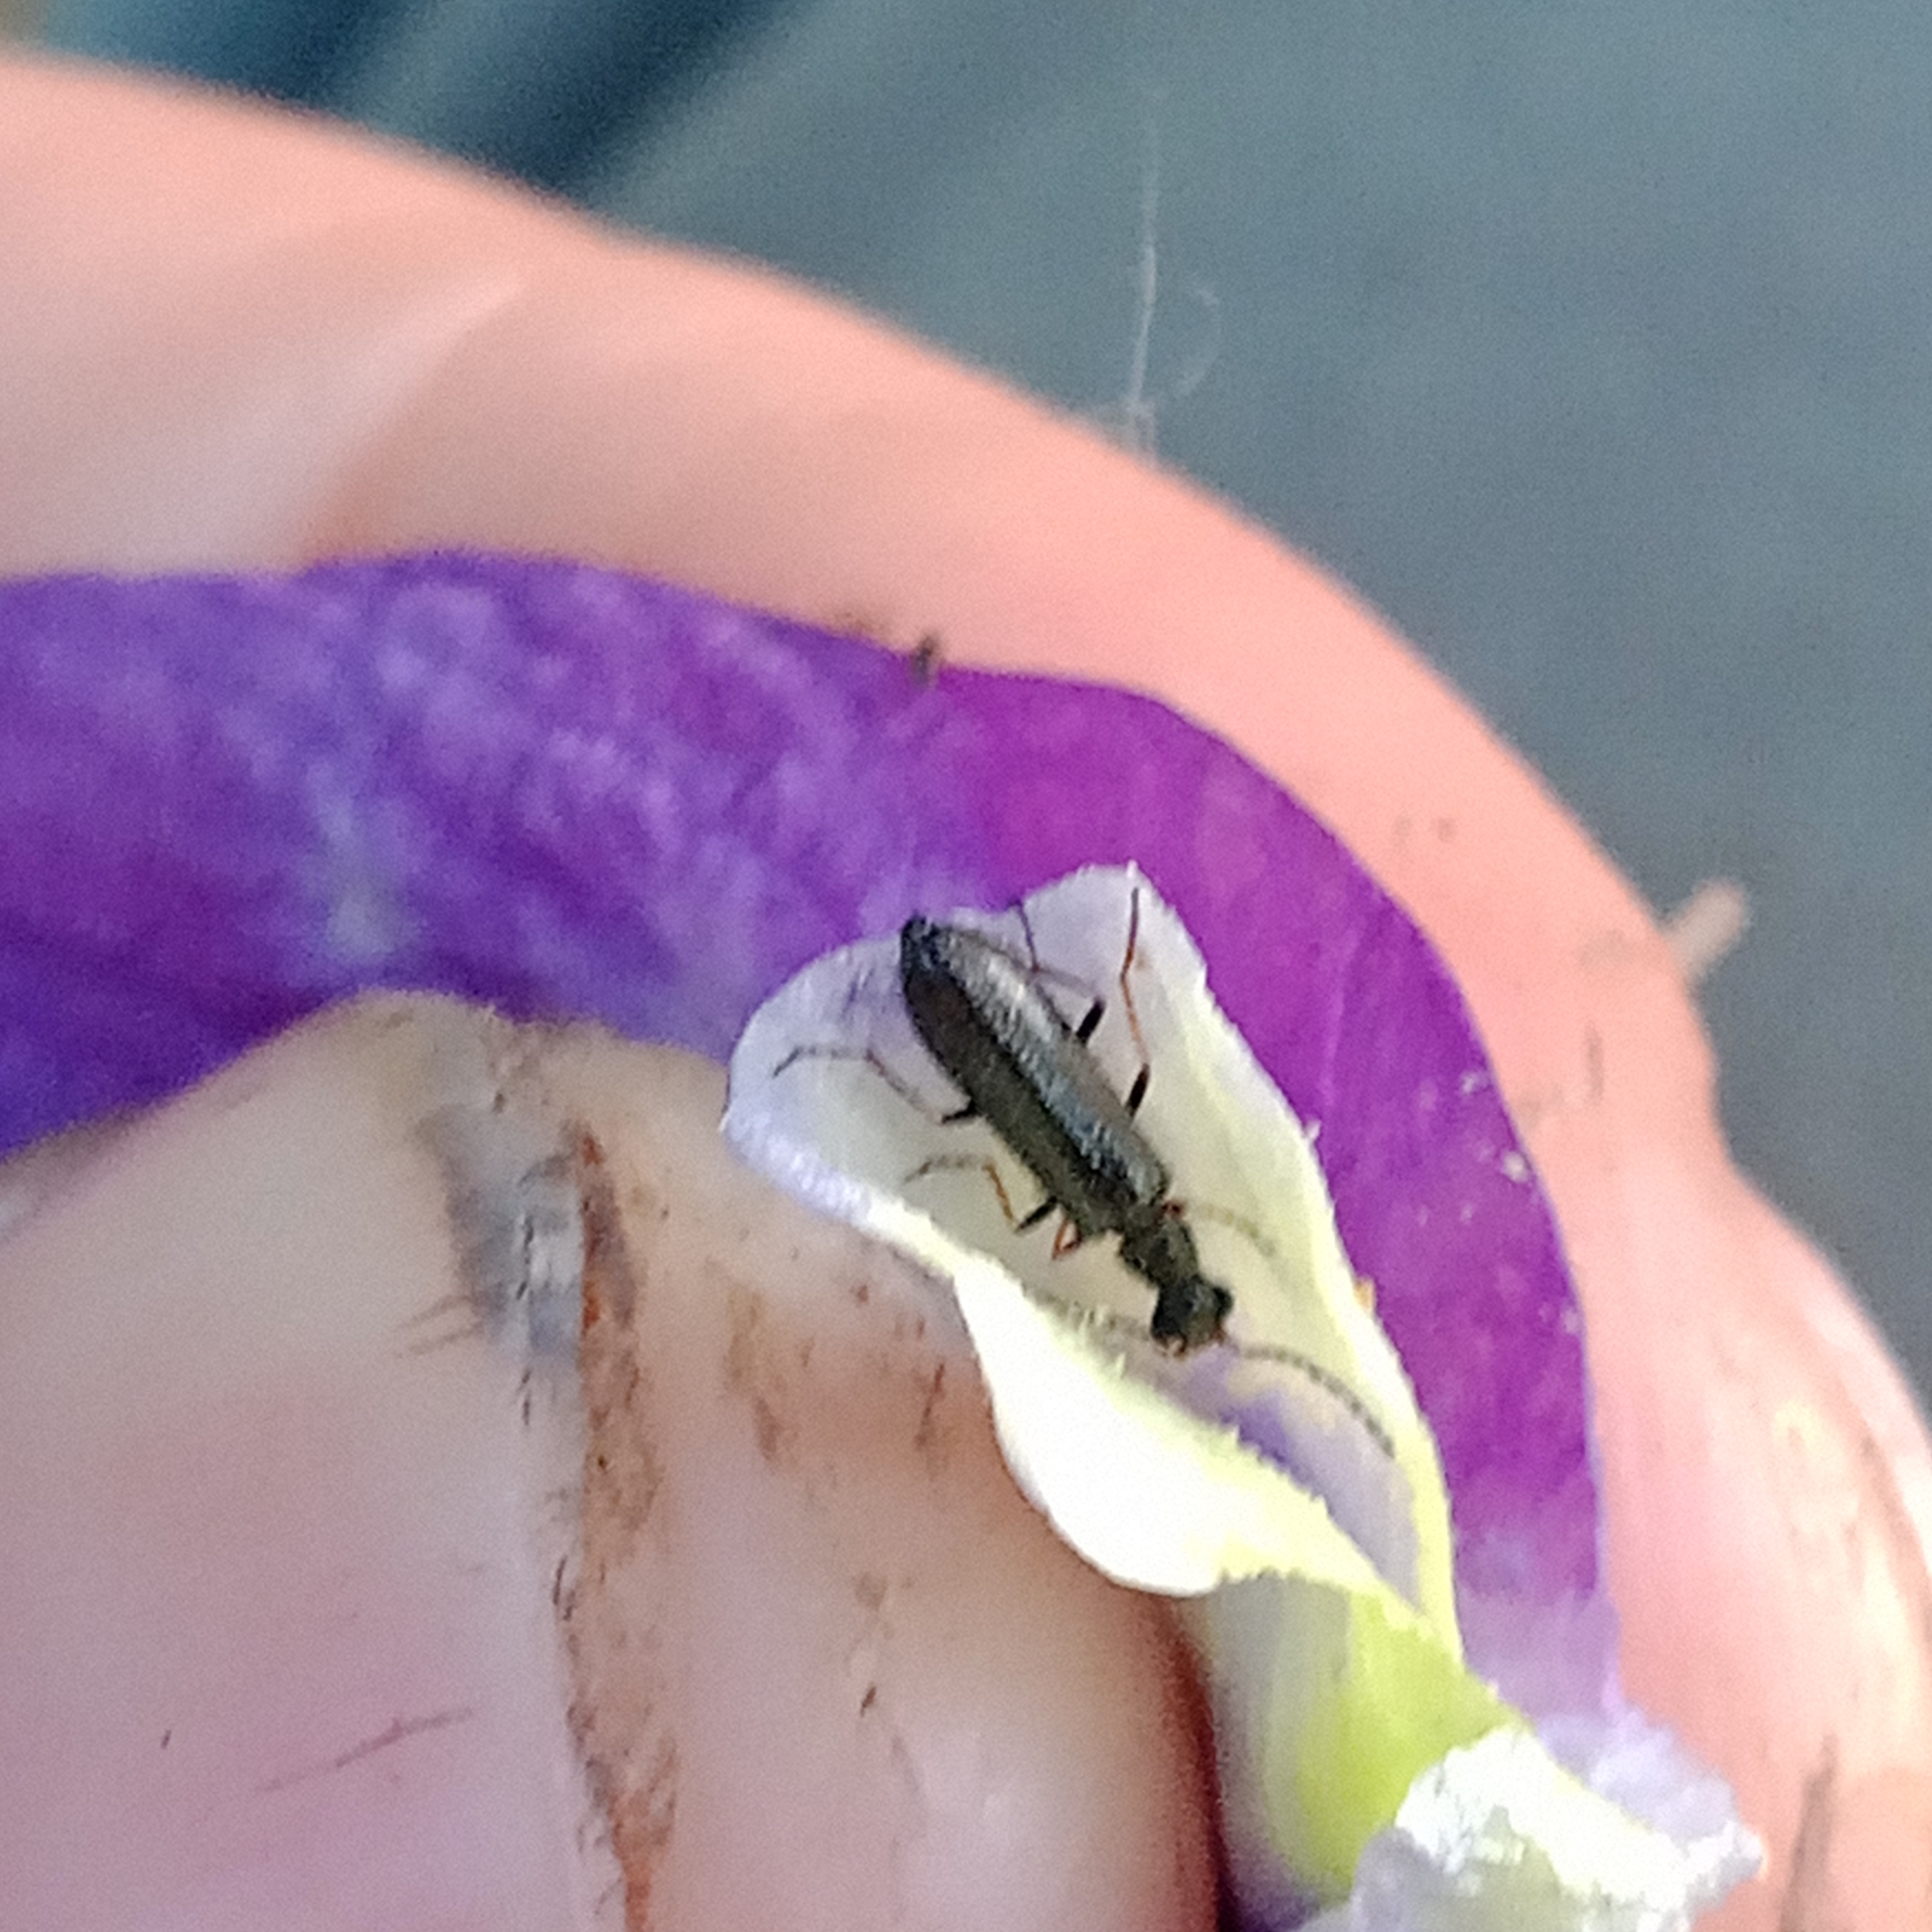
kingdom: Animalia
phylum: Arthropoda
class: Insecta
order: Coleoptera
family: Melyridae
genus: Dasytes
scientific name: Dasytes plumbeus
